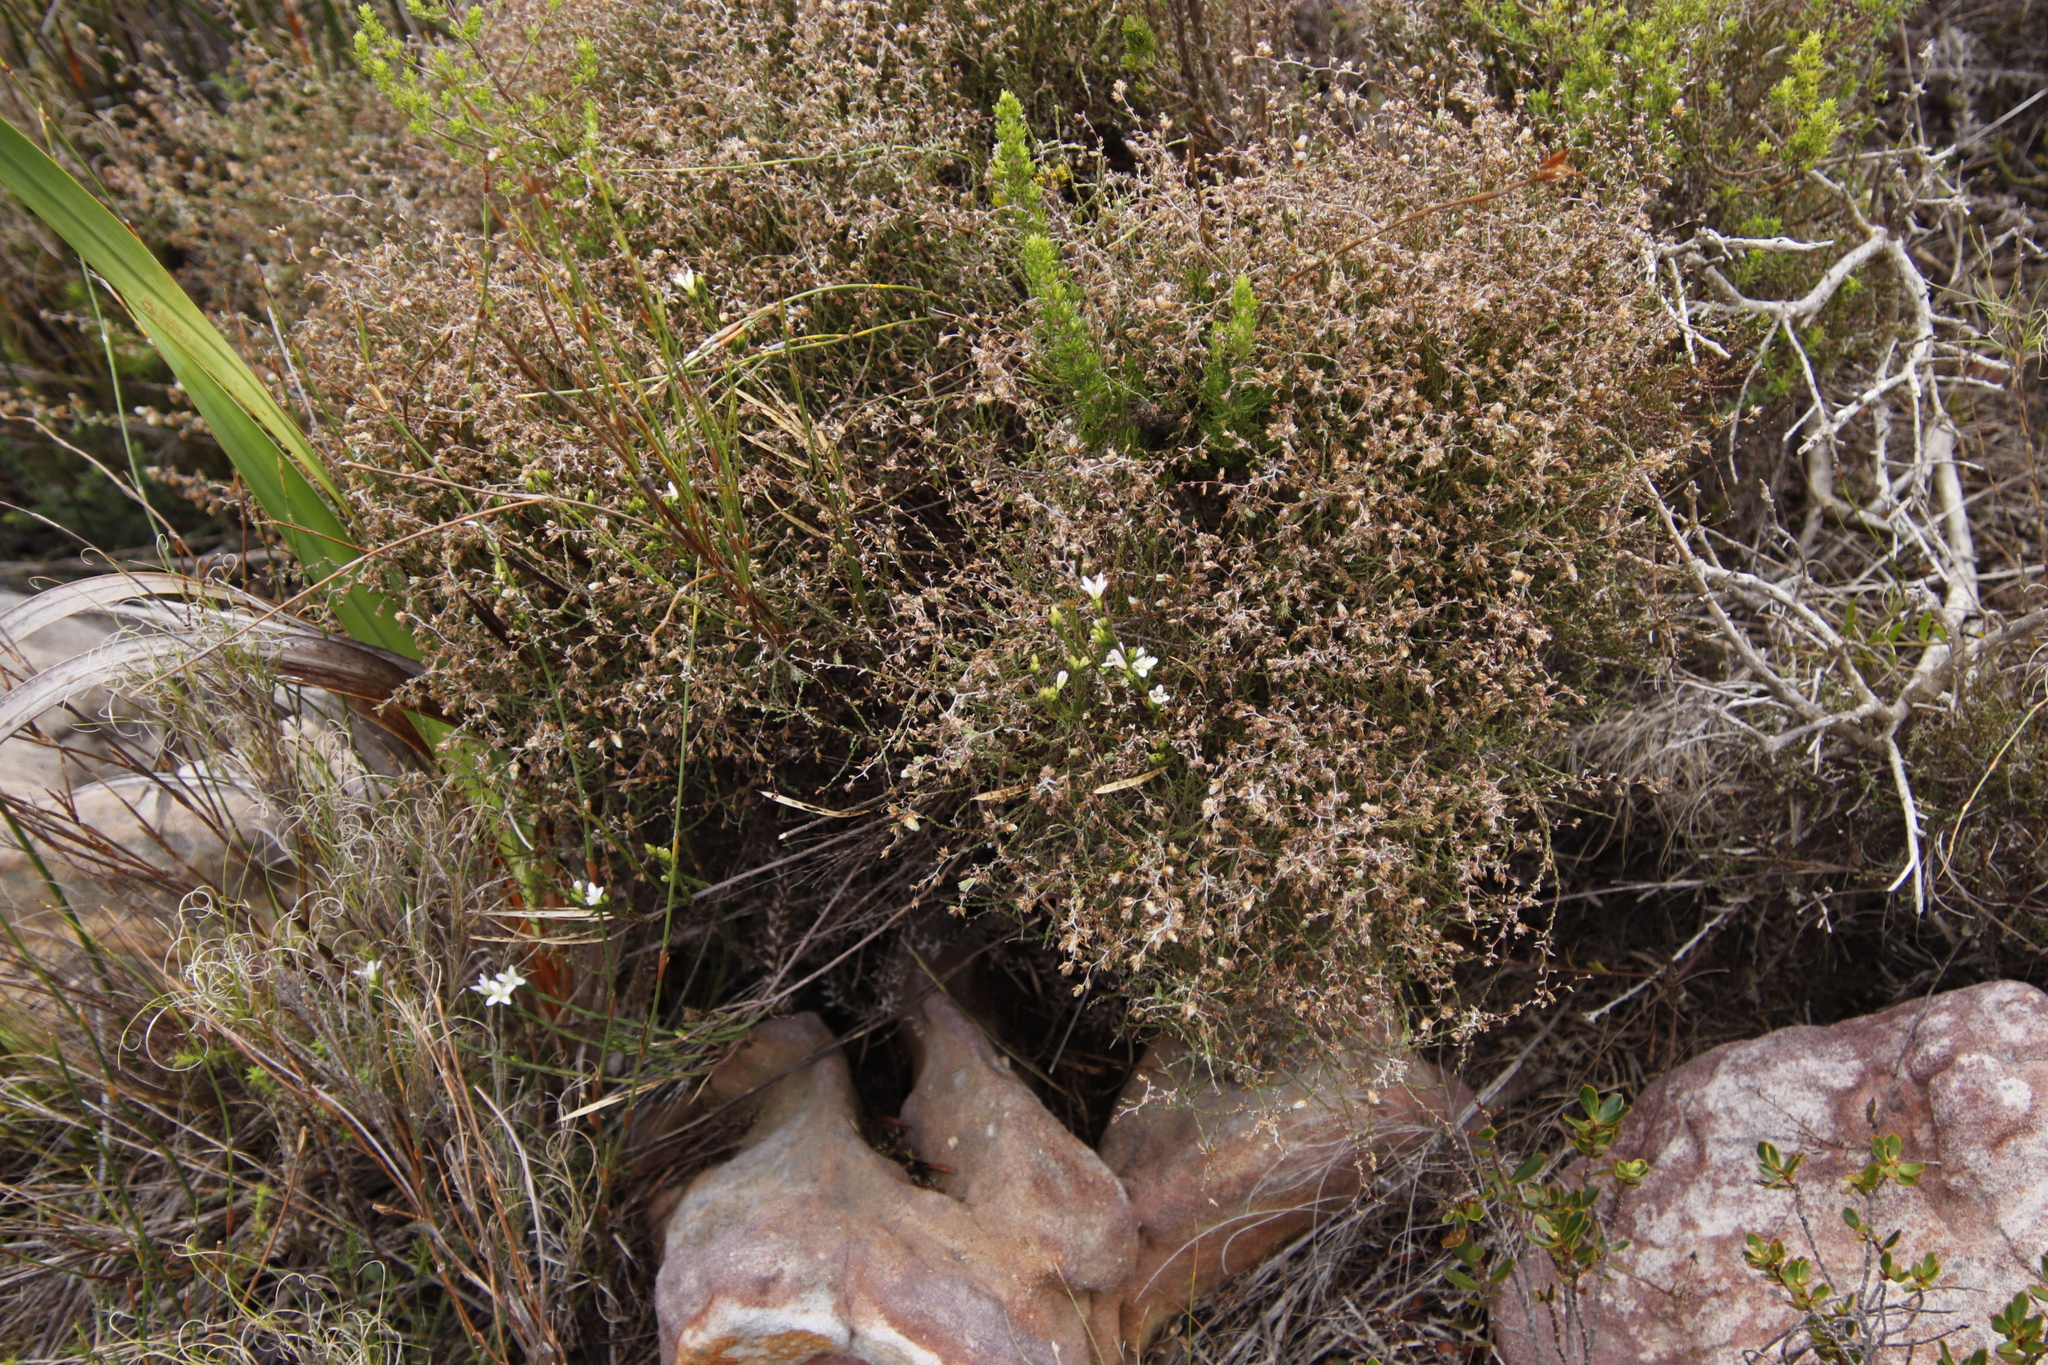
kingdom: Plantae
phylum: Tracheophyta
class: Magnoliopsida
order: Brassicales
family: Brassicaceae
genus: Heliophila
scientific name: Heliophila scoparia
